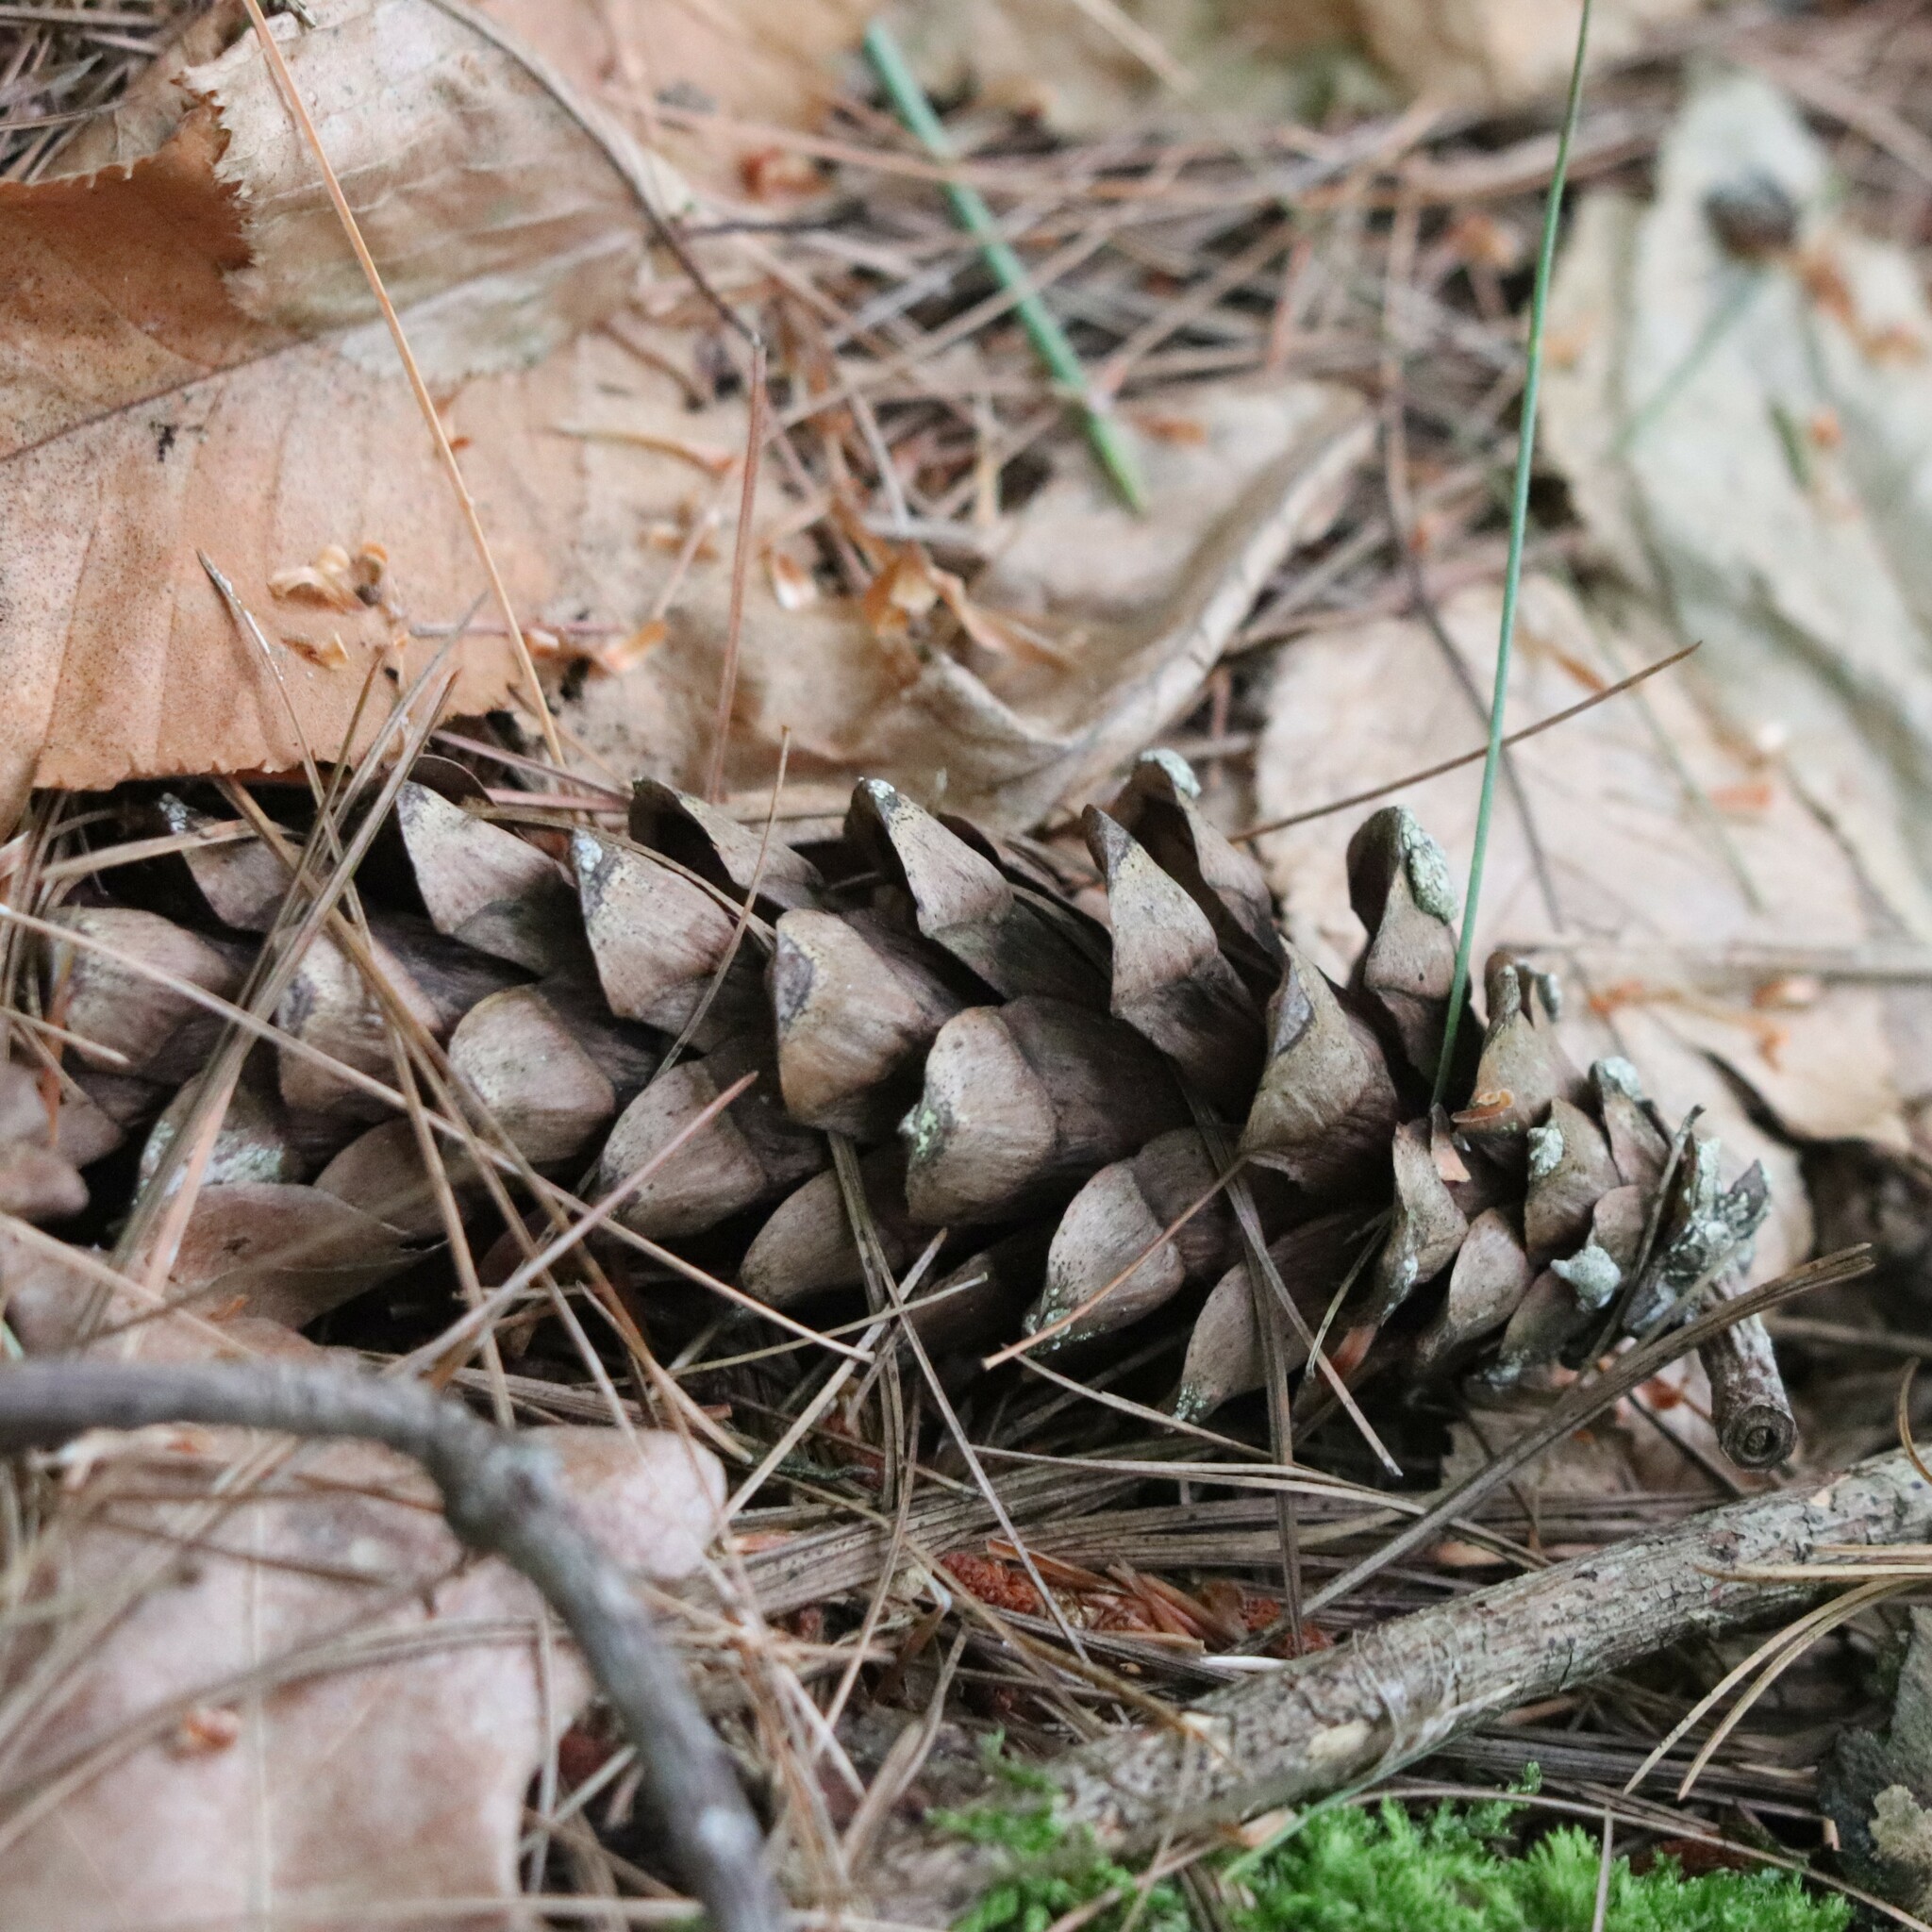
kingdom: Plantae
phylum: Tracheophyta
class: Pinopsida
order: Pinales
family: Pinaceae
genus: Pinus
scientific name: Pinus strobus
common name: Weymouth pine
